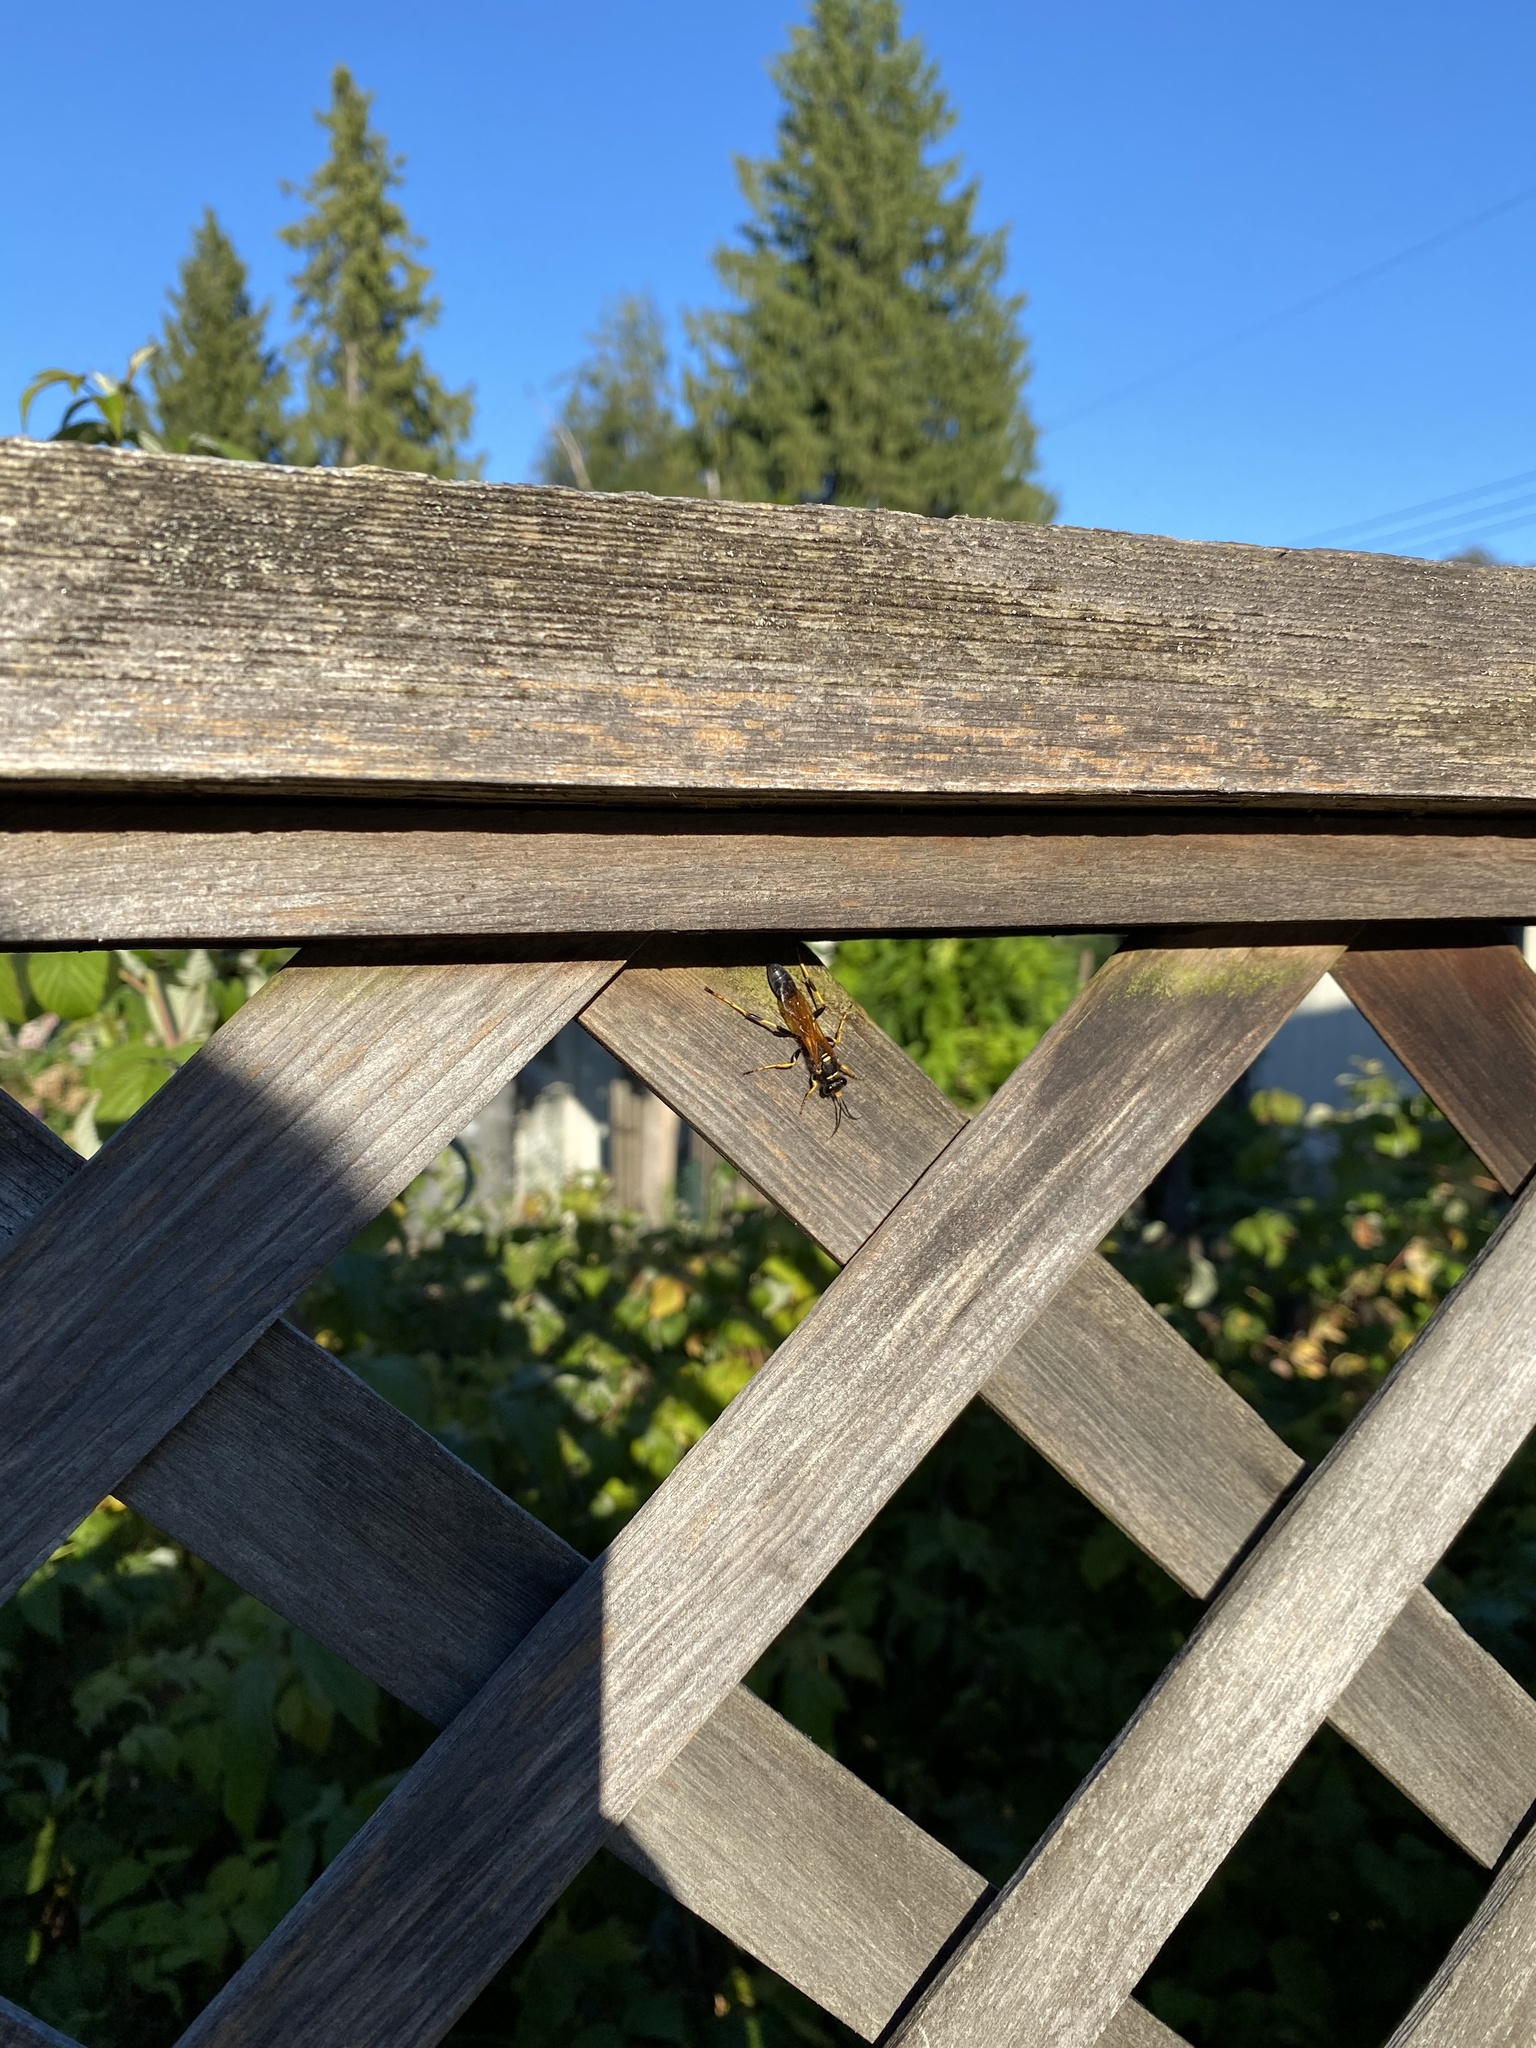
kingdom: Animalia
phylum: Arthropoda
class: Insecta
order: Hymenoptera
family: Sphecidae
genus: Sceliphron
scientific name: Sceliphron caementarium
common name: Mud dauber
